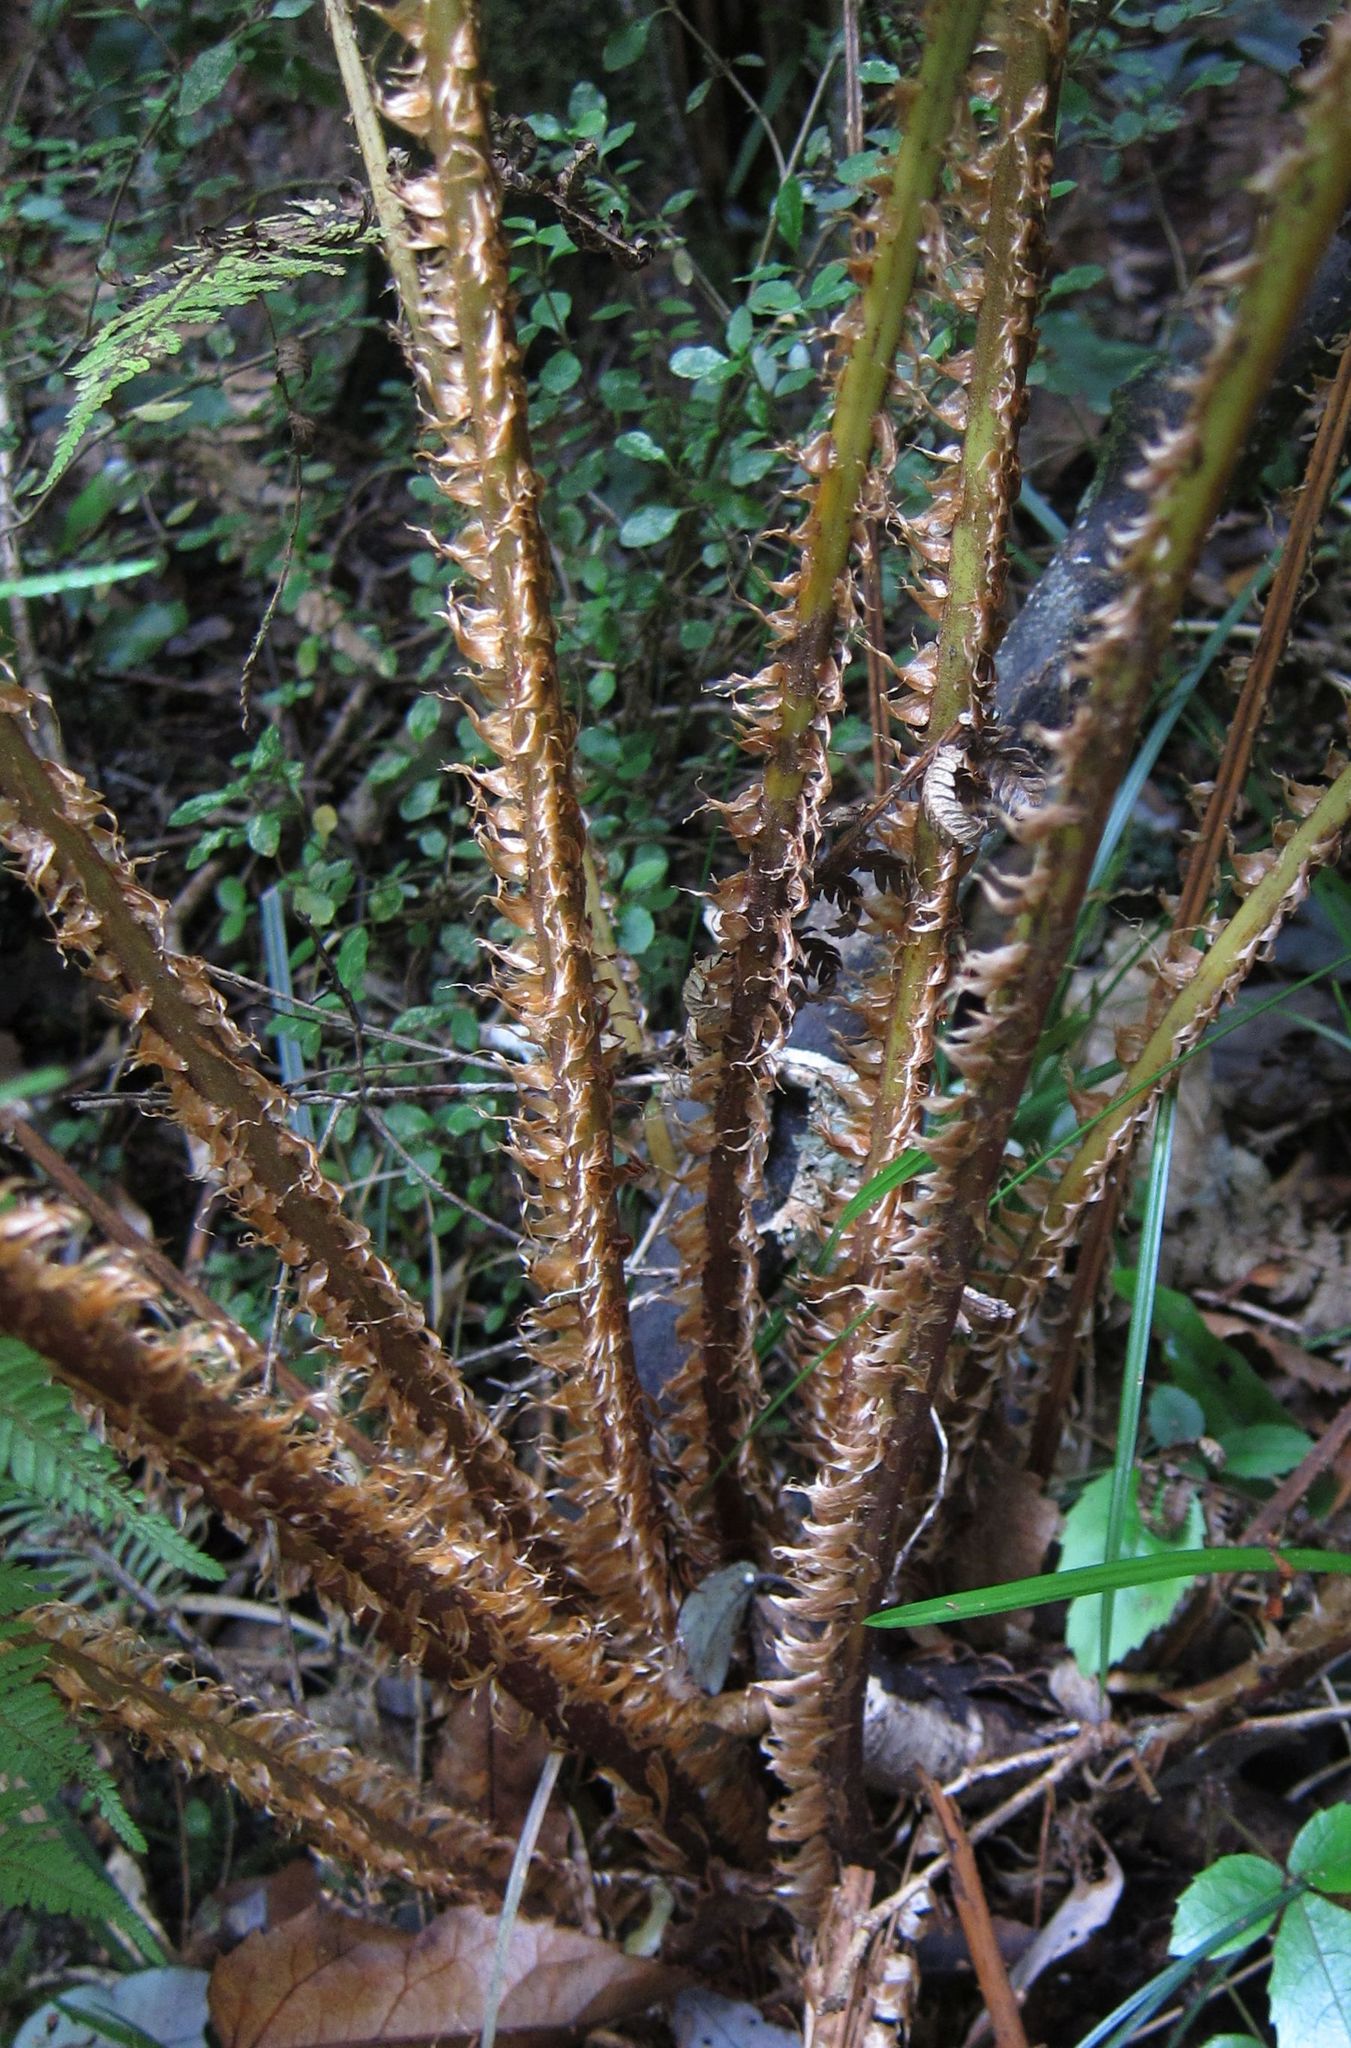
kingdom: Plantae
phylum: Tracheophyta
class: Polypodiopsida
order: Cyatheales
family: Cyatheaceae
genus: Alsophila
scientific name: Alsophila smithii
